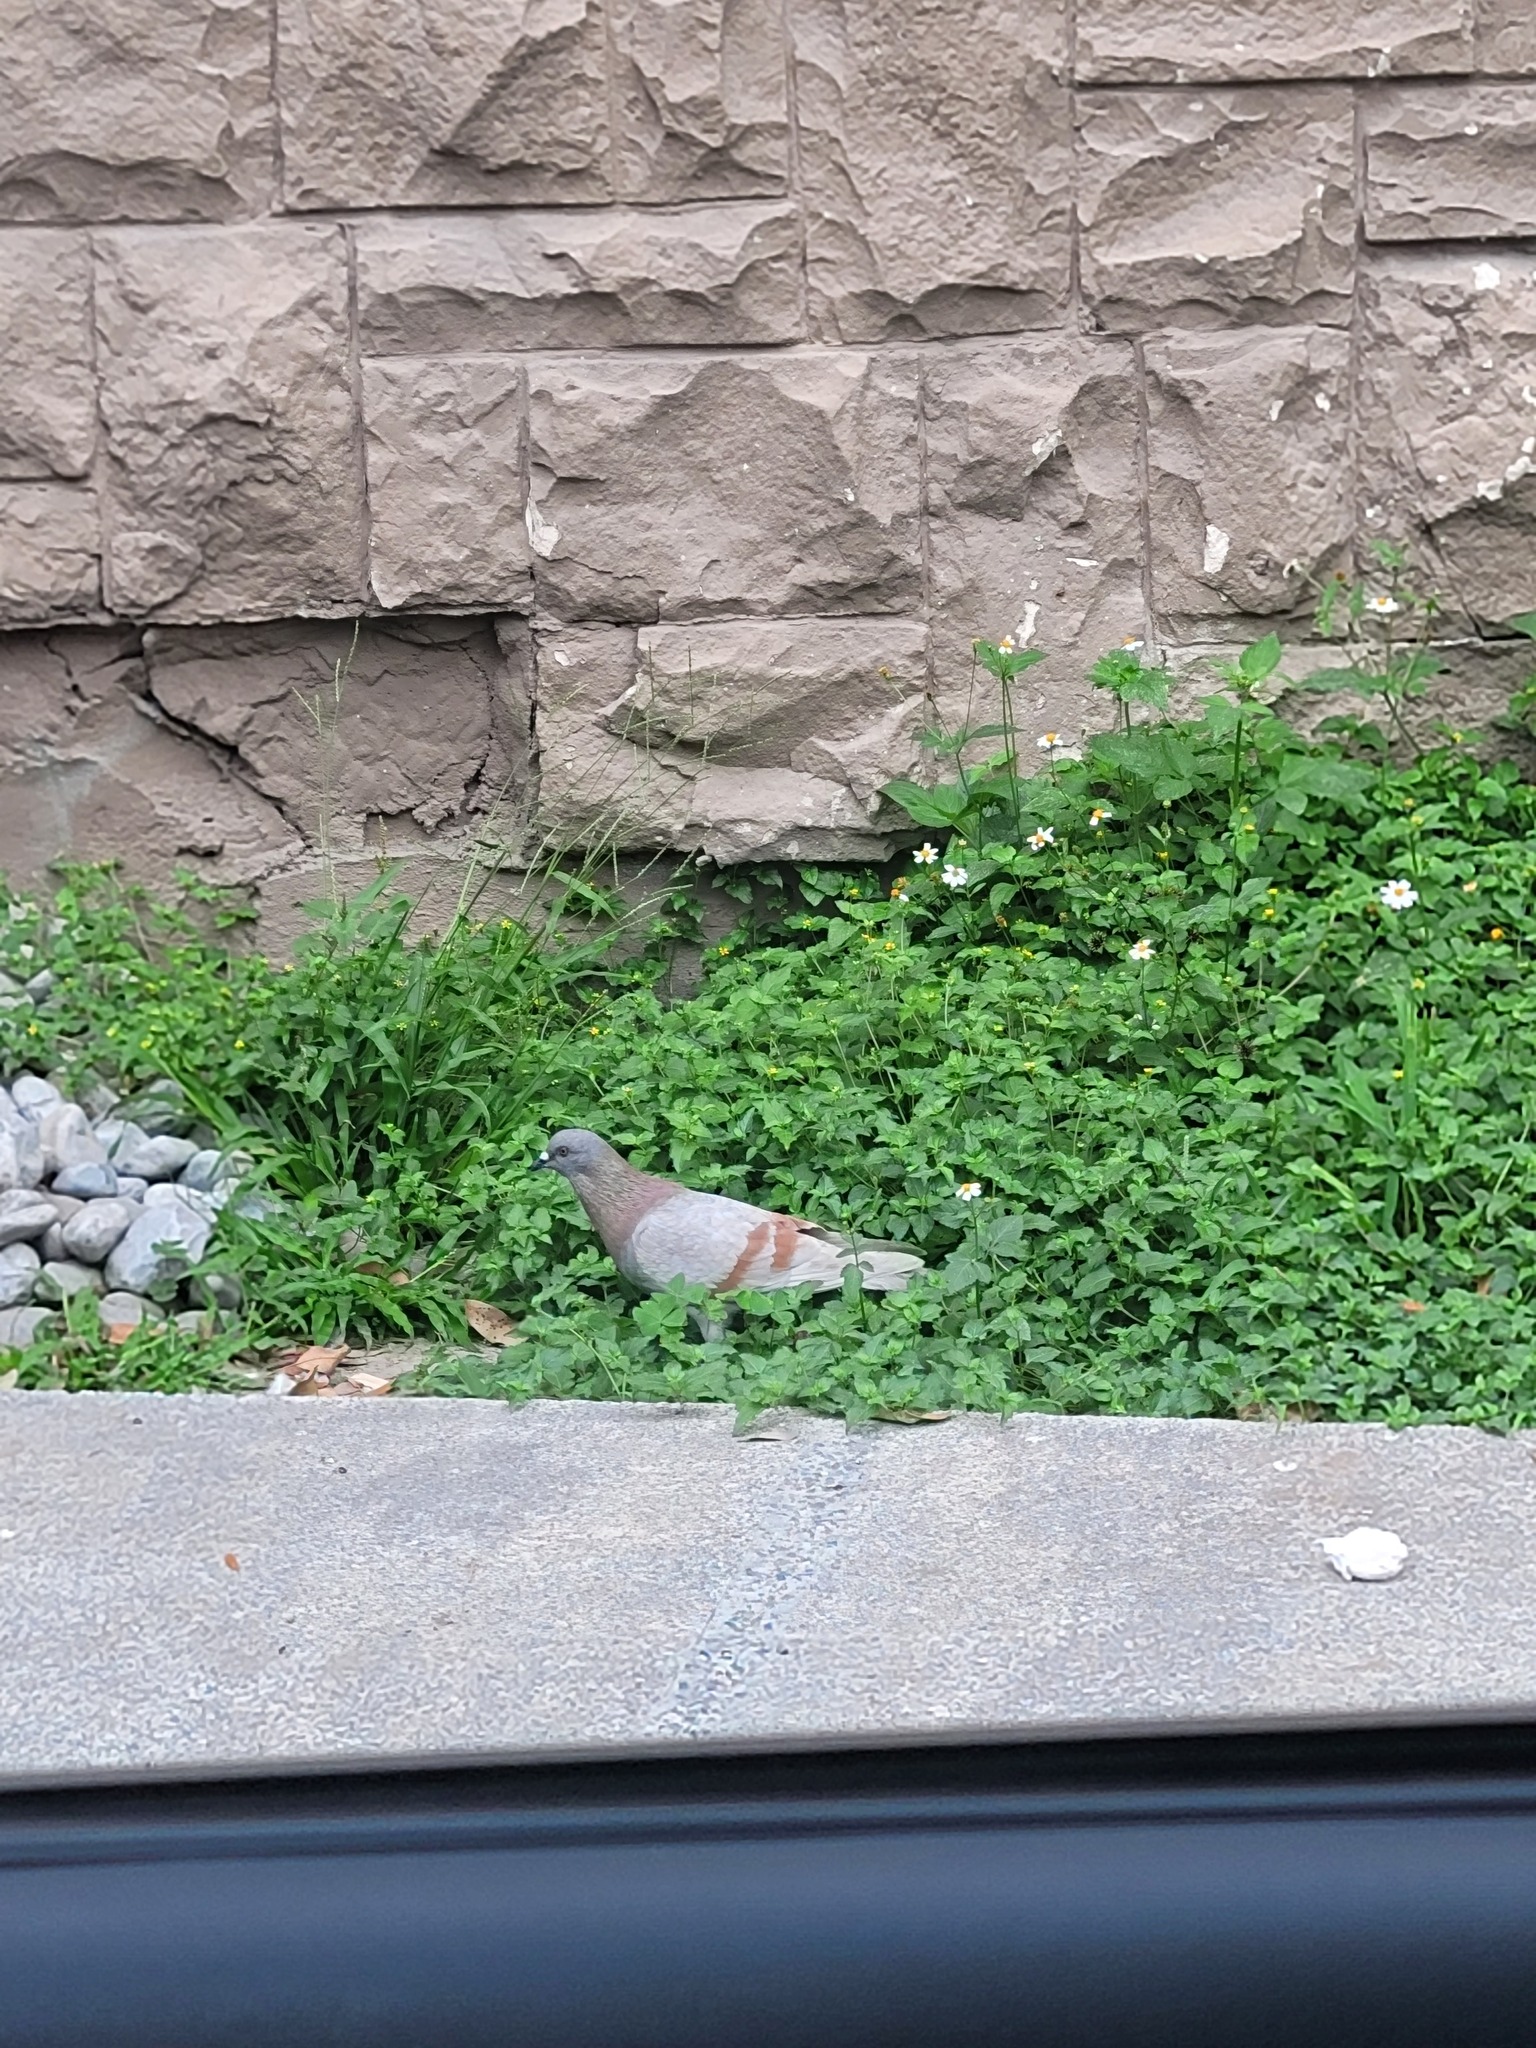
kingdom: Animalia
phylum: Chordata
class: Aves
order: Columbiformes
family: Columbidae
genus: Columba
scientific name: Columba livia
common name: Rock pigeon
